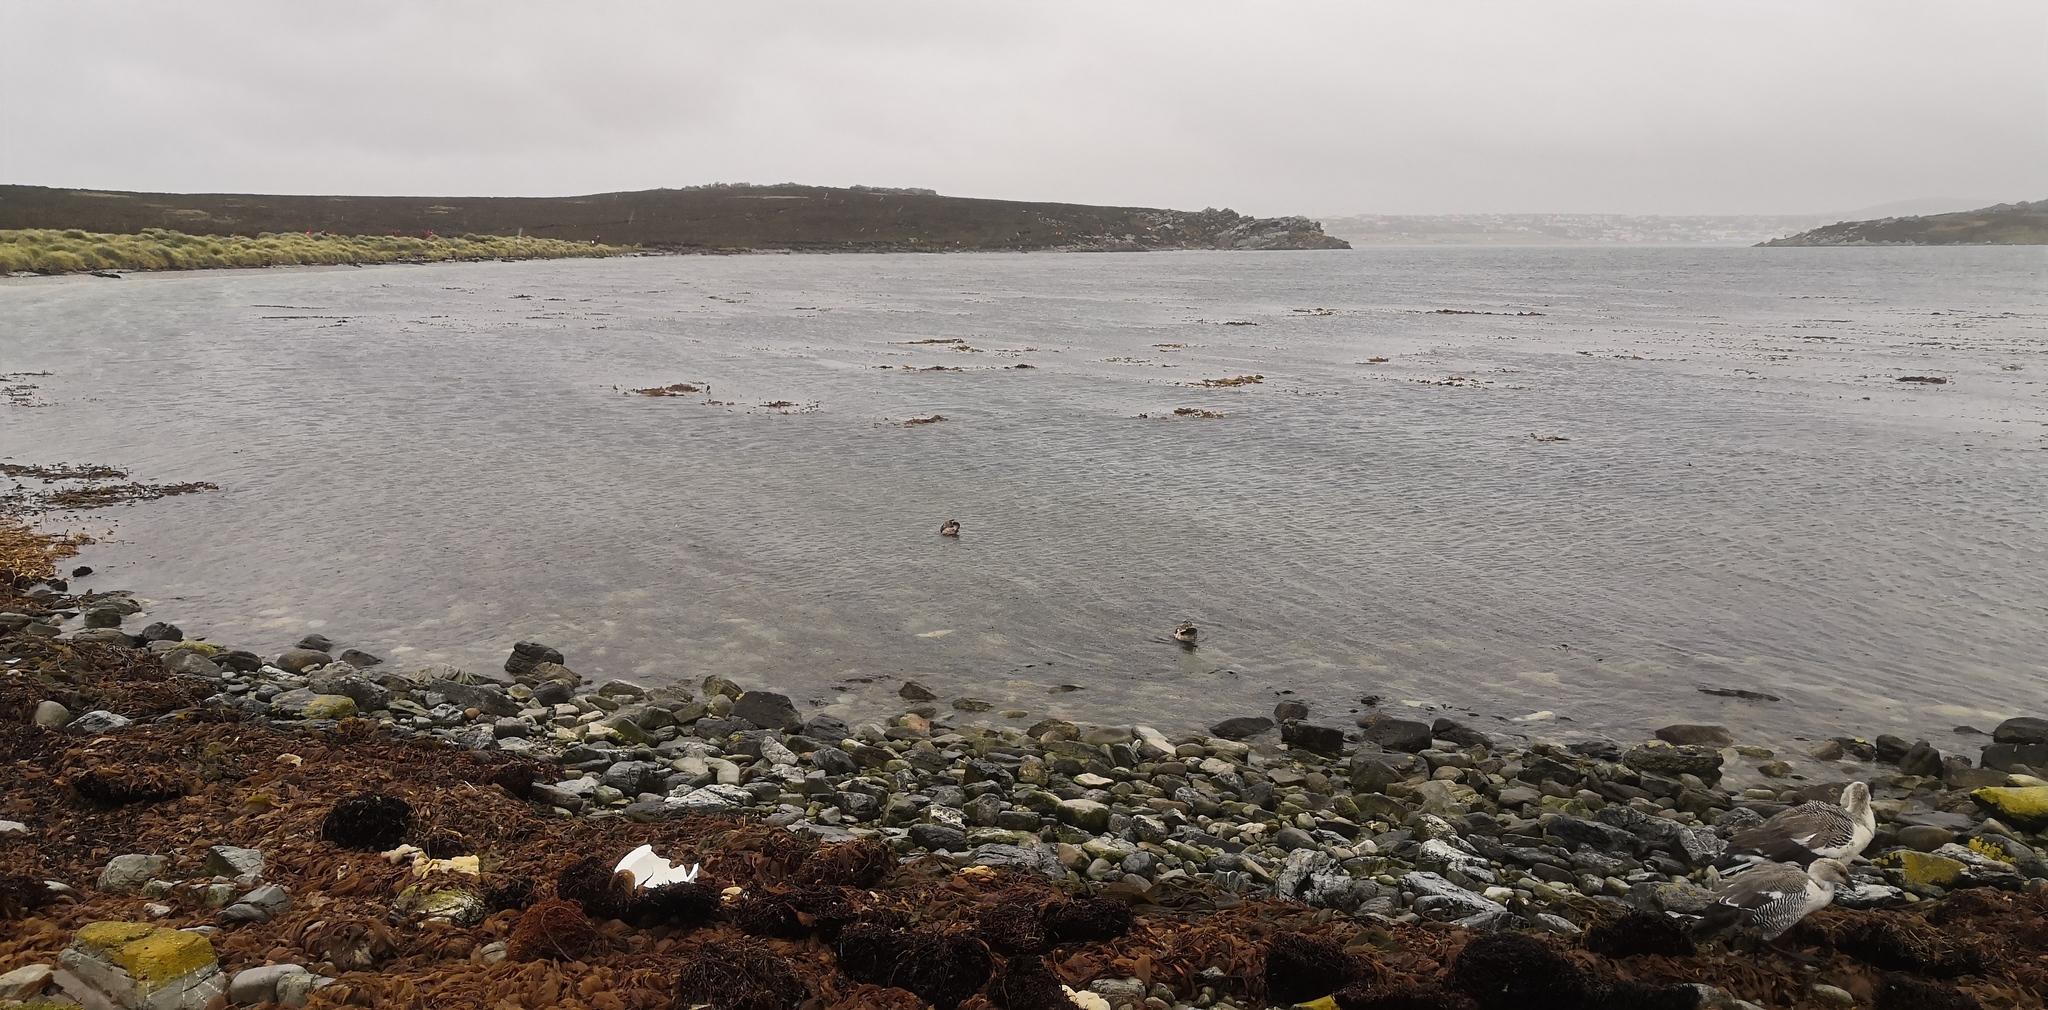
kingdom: Animalia
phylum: Chordata
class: Aves
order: Anseriformes
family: Anatidae
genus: Chloephaga
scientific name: Chloephaga picta
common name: Upland goose
